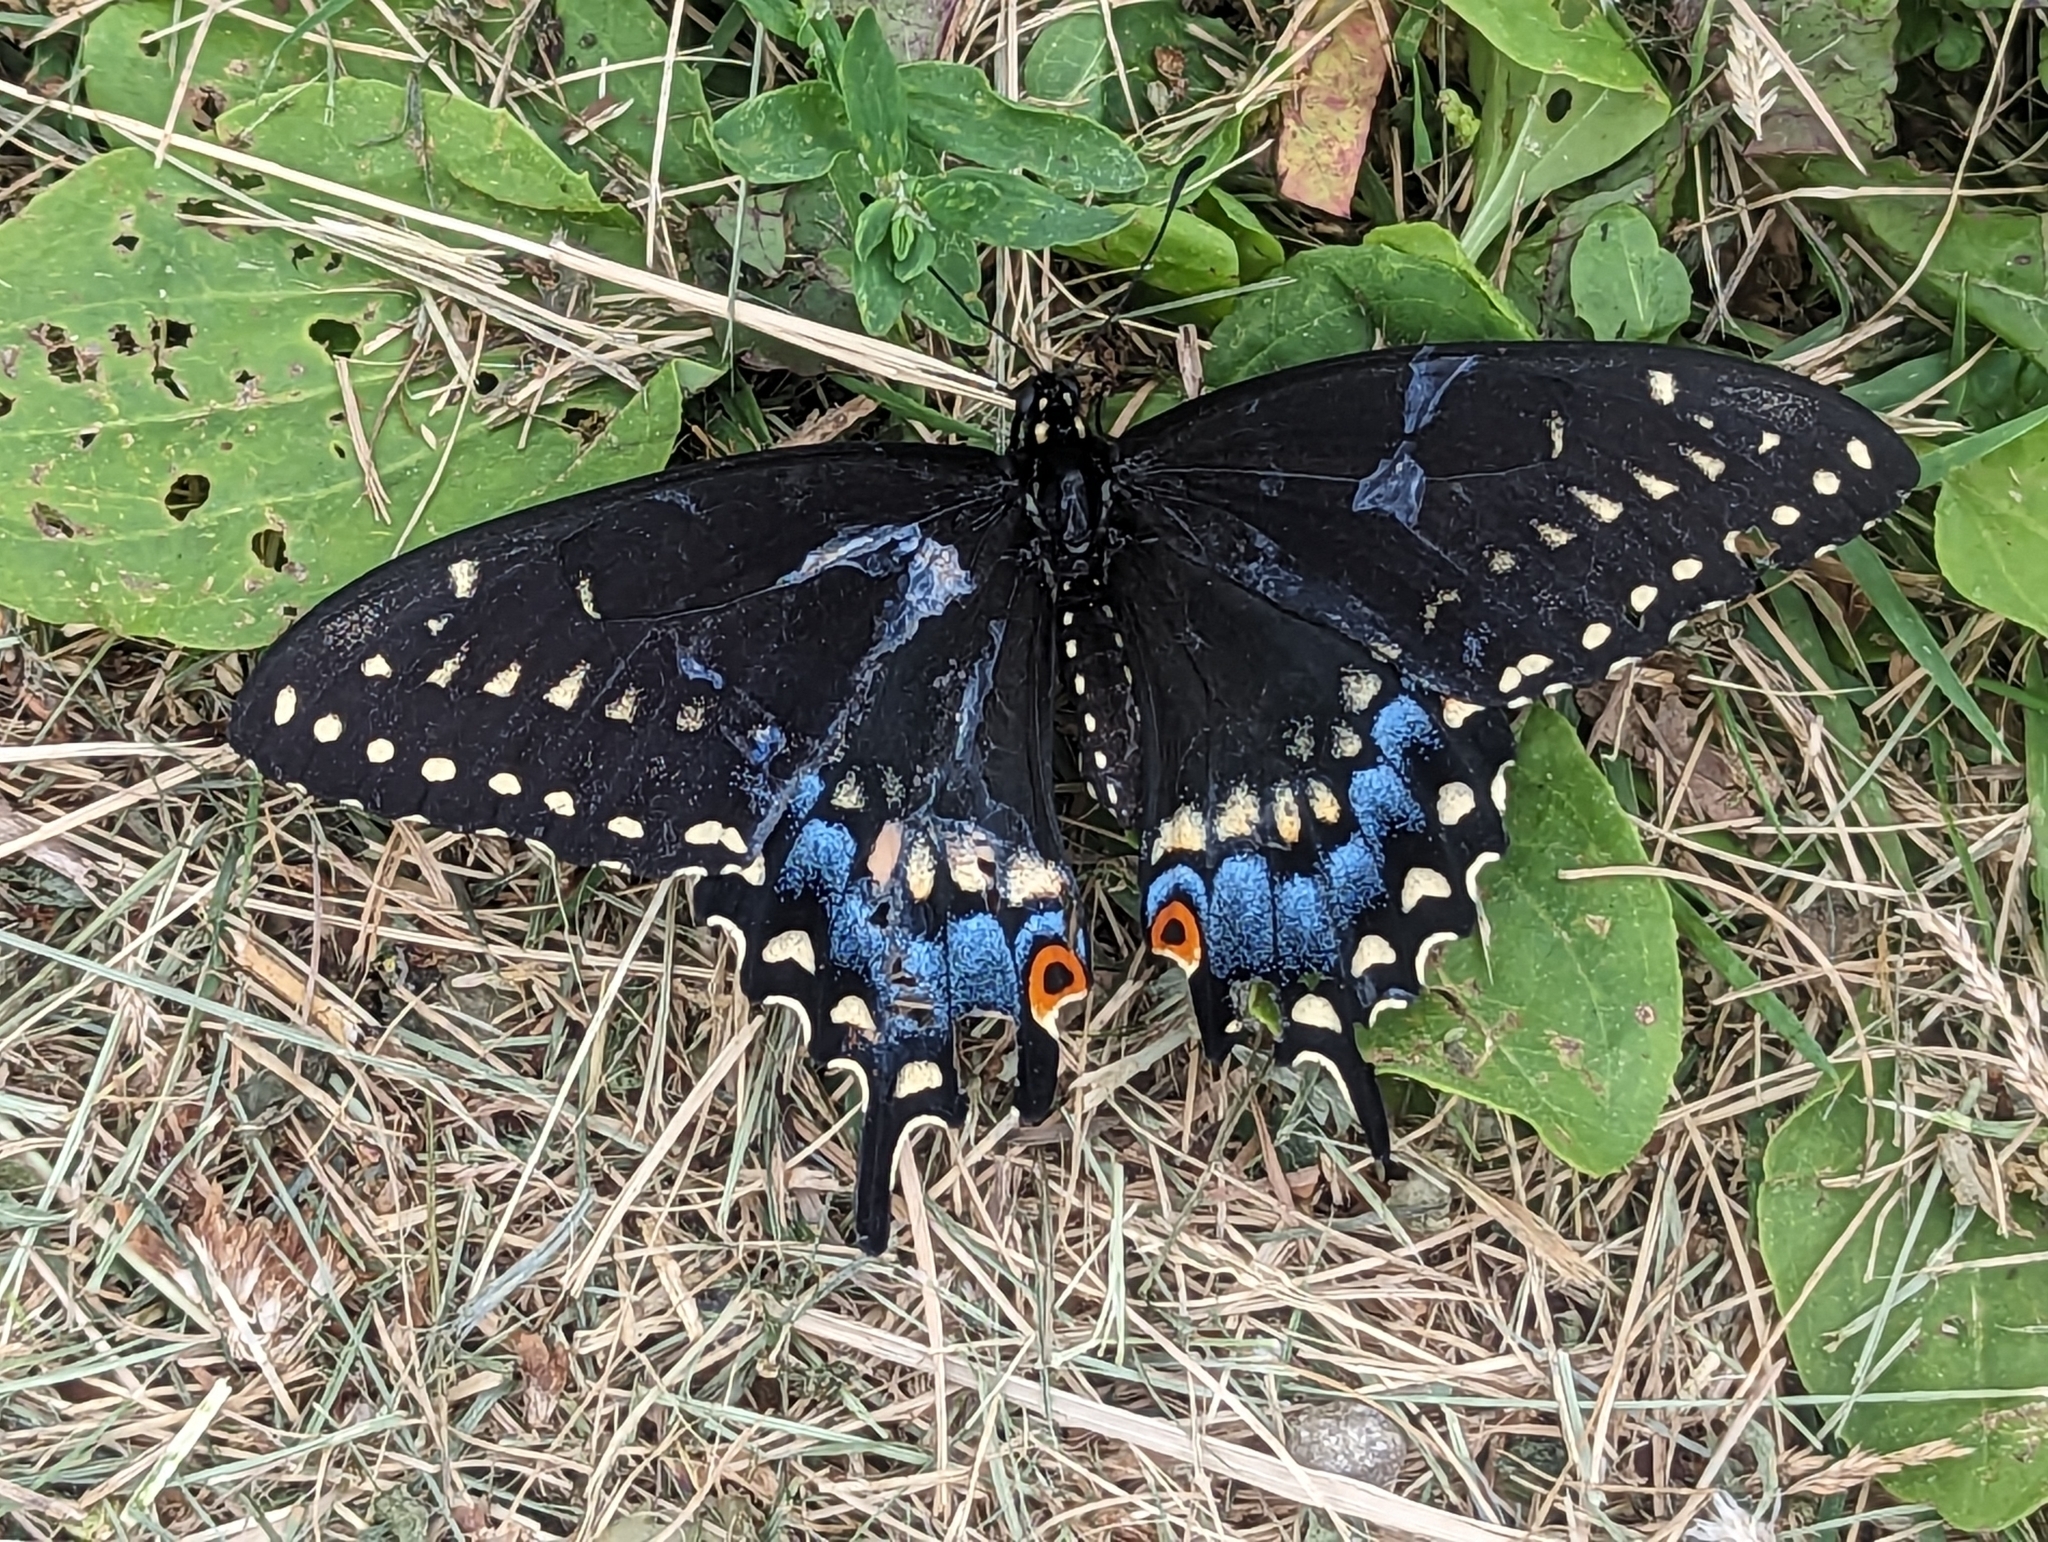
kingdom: Animalia
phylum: Arthropoda
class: Insecta
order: Lepidoptera
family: Papilionidae
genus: Papilio
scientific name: Papilio polyxenes
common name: Black swallowtail
